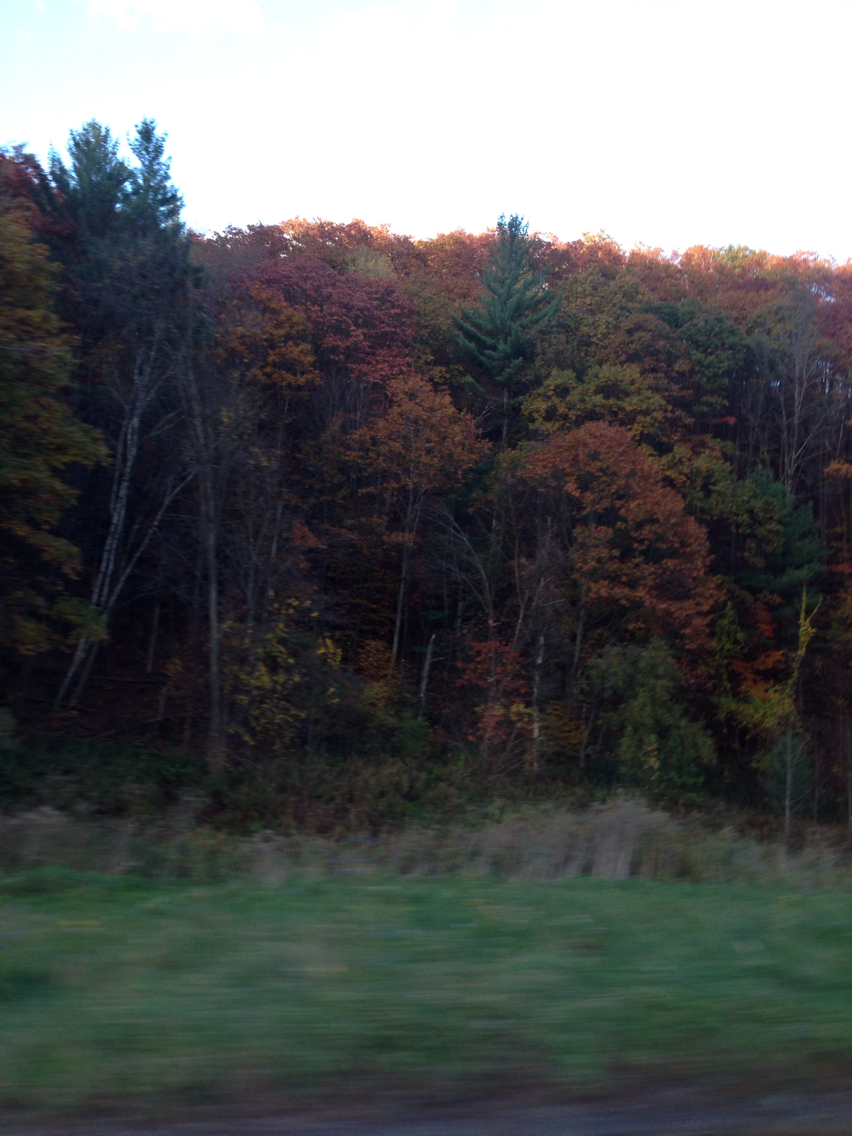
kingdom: Plantae
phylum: Tracheophyta
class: Magnoliopsida
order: Fagales
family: Fagaceae
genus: Quercus
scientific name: Quercus rubra
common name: Red oak
